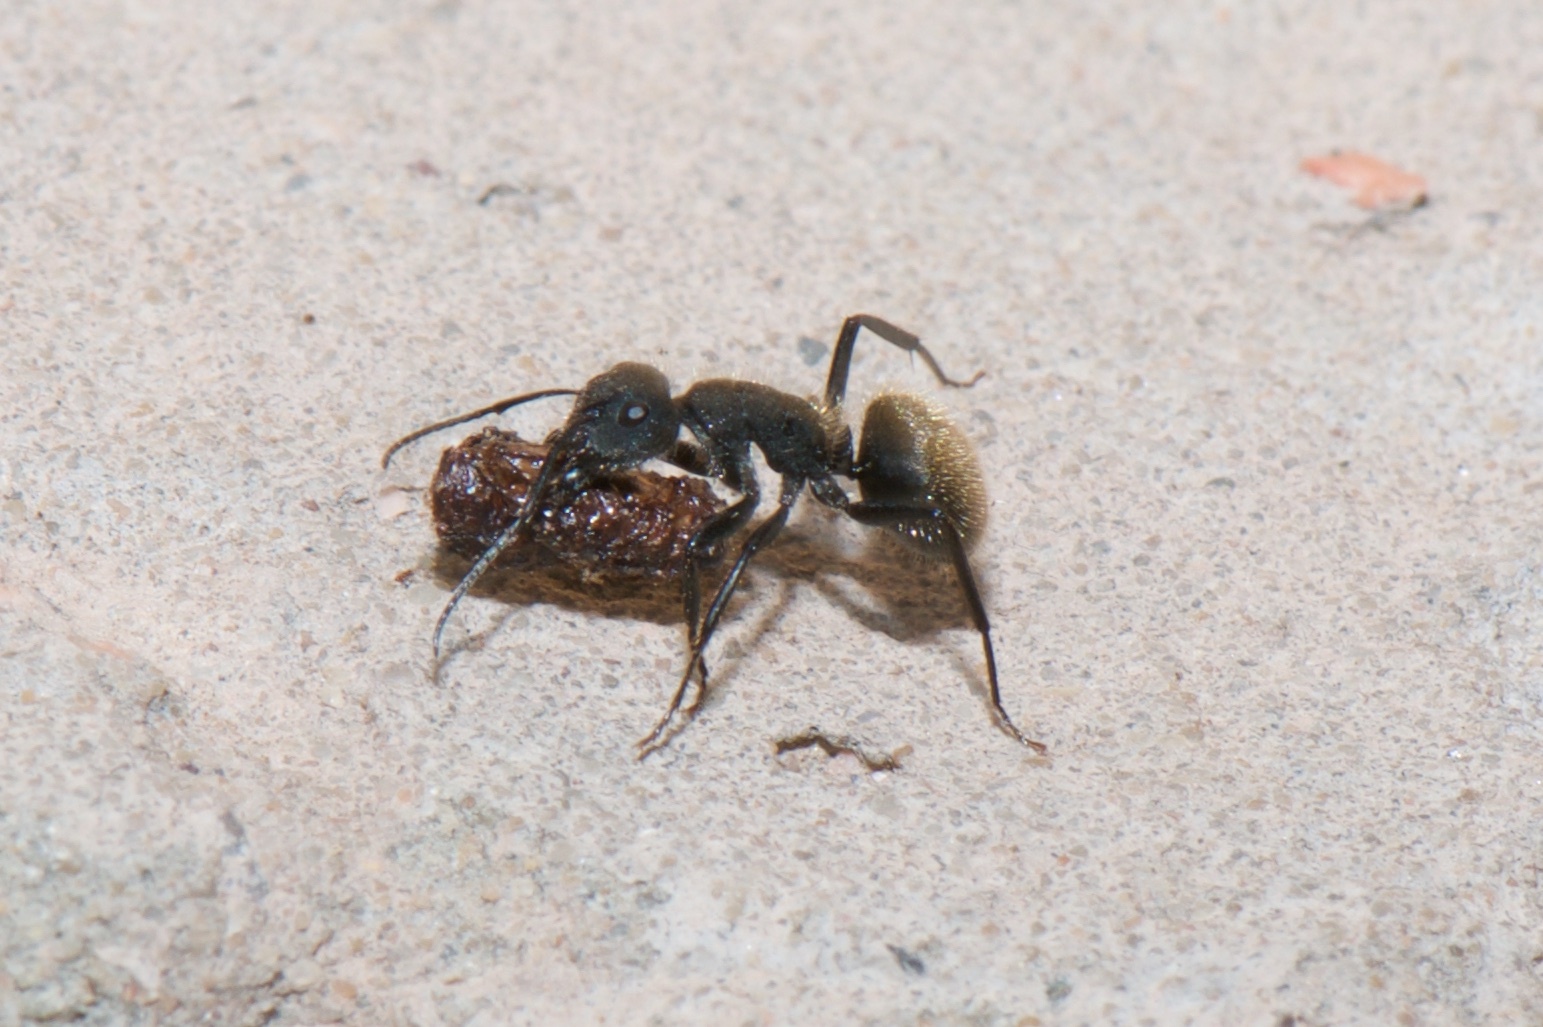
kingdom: Animalia
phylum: Arthropoda
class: Insecta
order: Hymenoptera
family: Formicidae
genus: Camponotus
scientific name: Camponotus mus
